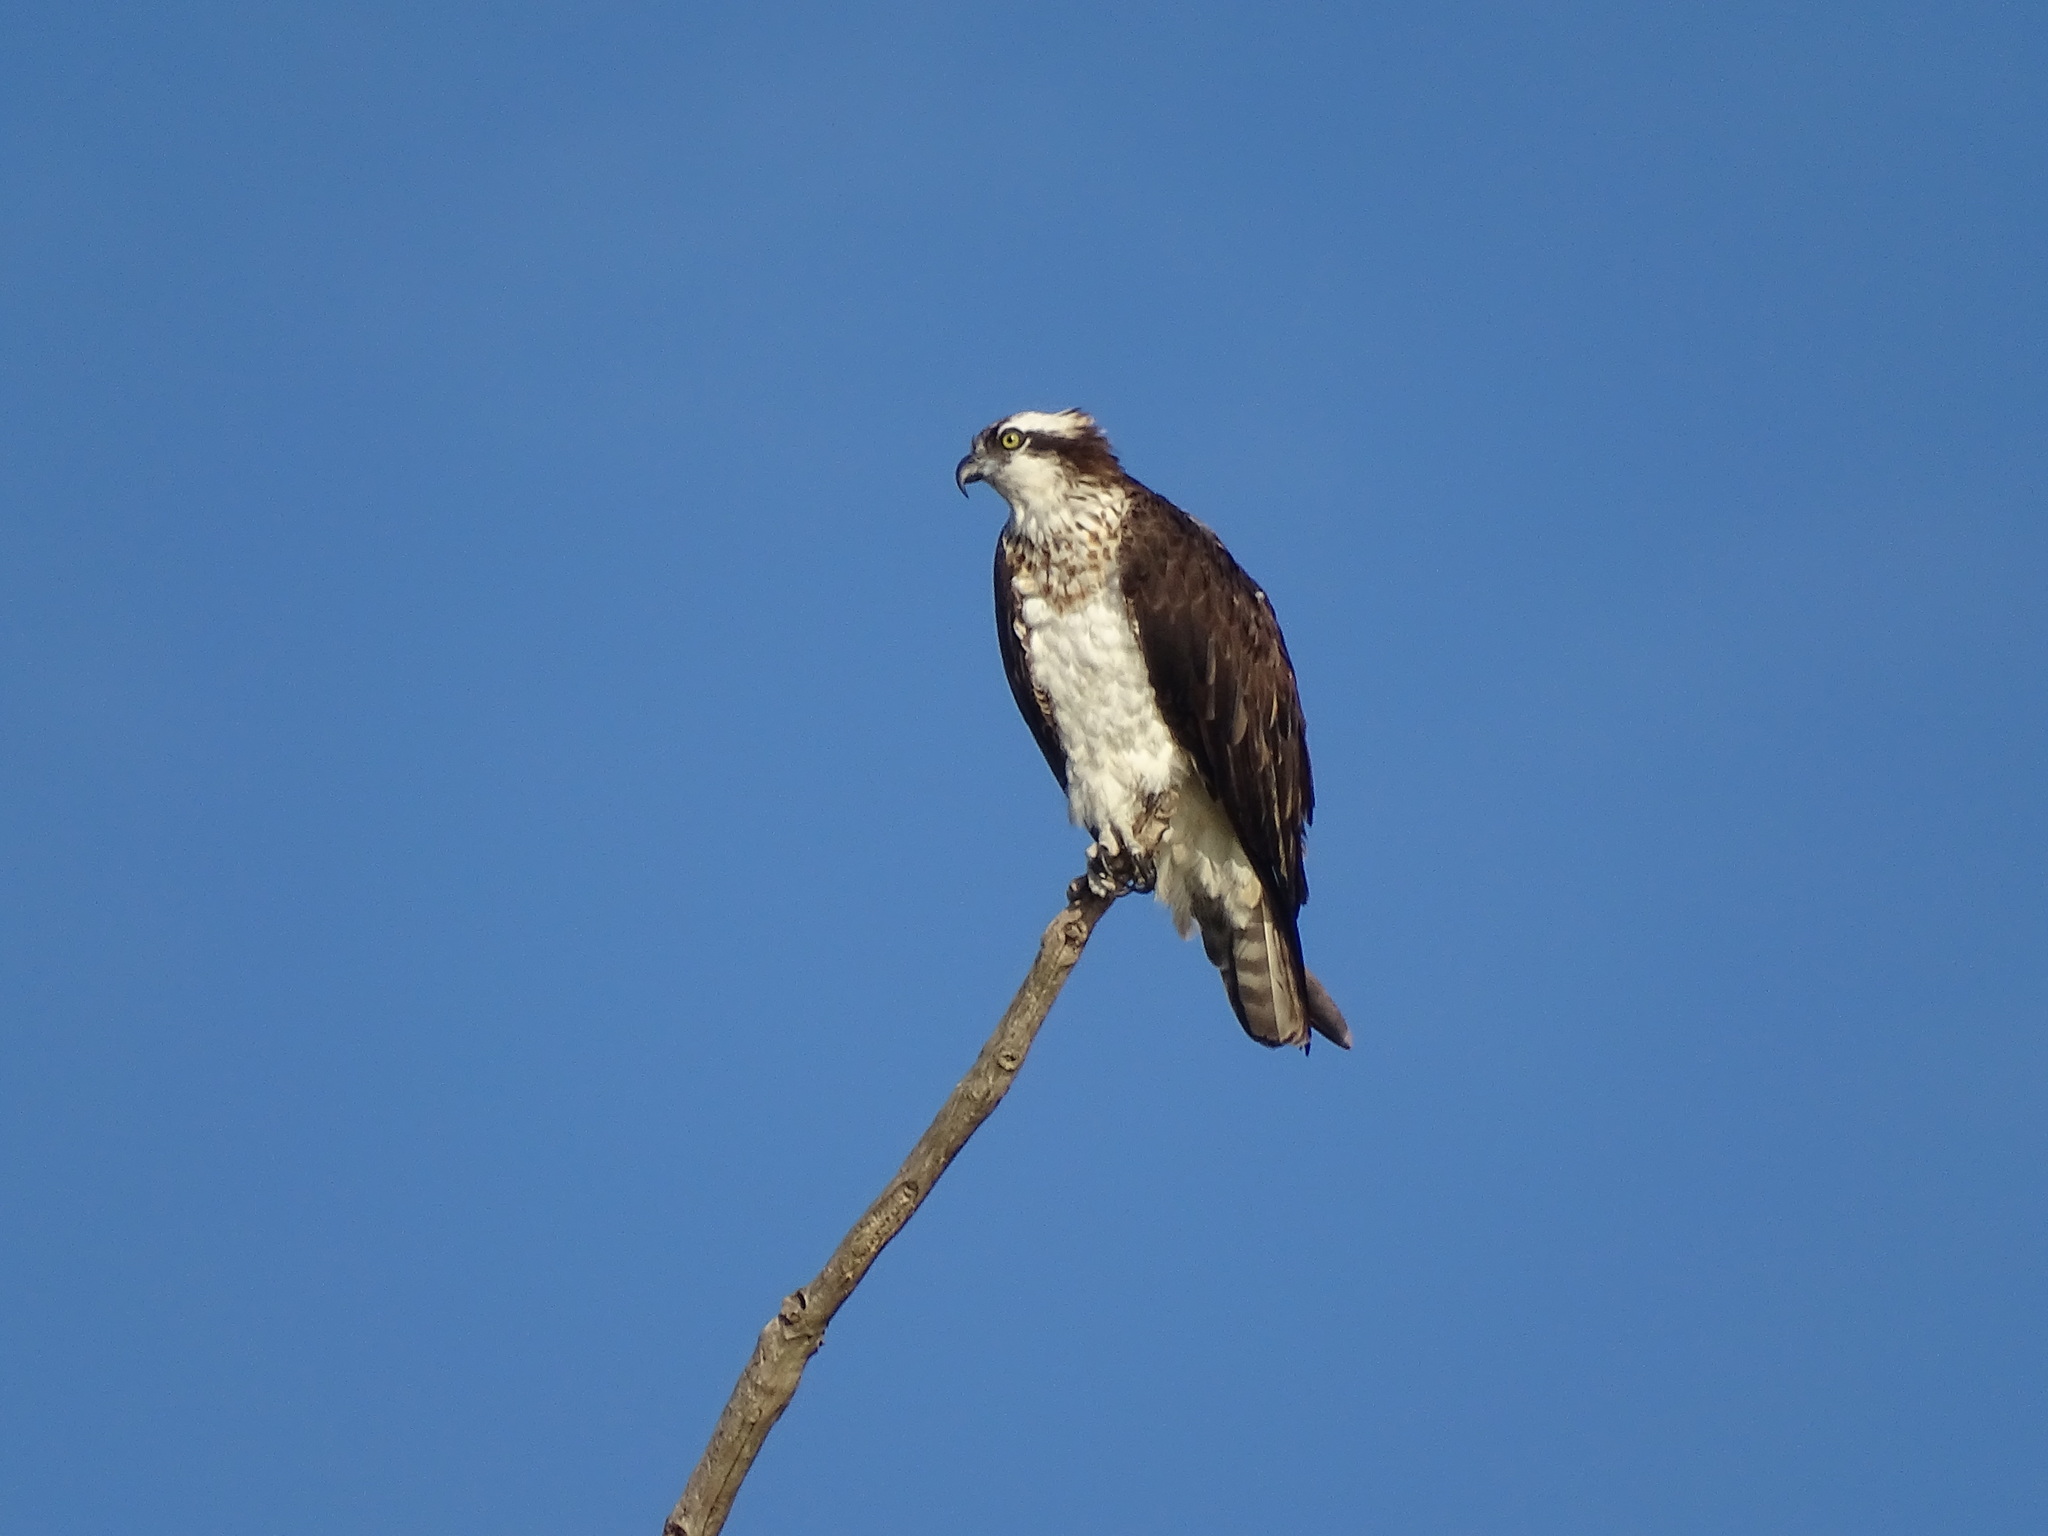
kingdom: Animalia
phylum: Chordata
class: Aves
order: Accipitriformes
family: Pandionidae
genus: Pandion
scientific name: Pandion haliaetus
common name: Osprey
